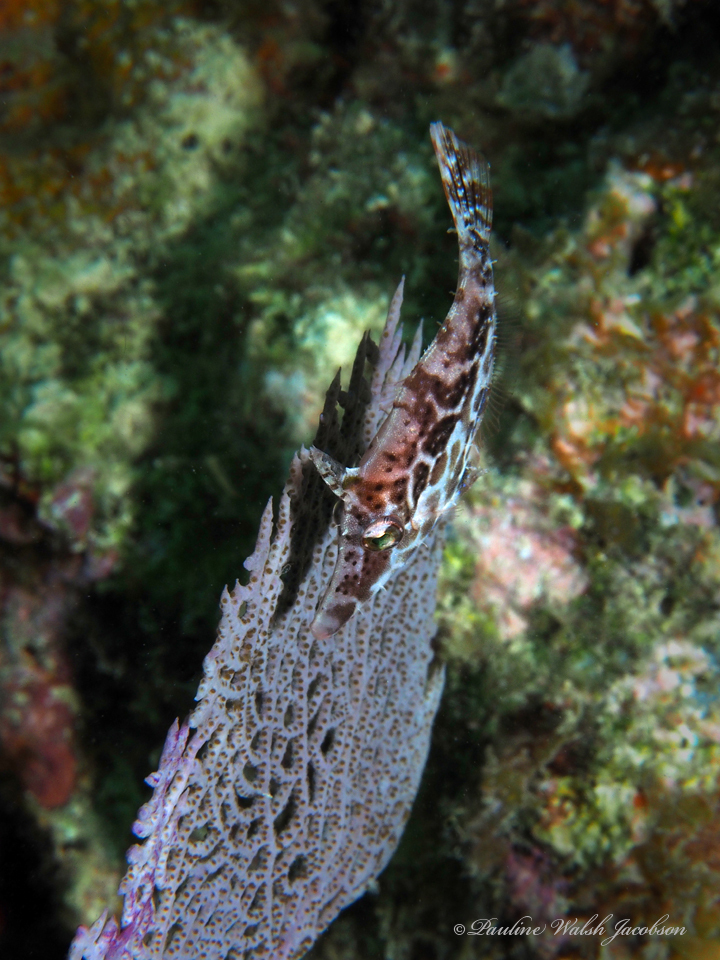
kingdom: Animalia
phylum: Chordata
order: Tetraodontiformes
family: Monacanthidae
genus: Monacanthus
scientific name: Monacanthus tuckeri
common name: Slender filefish
